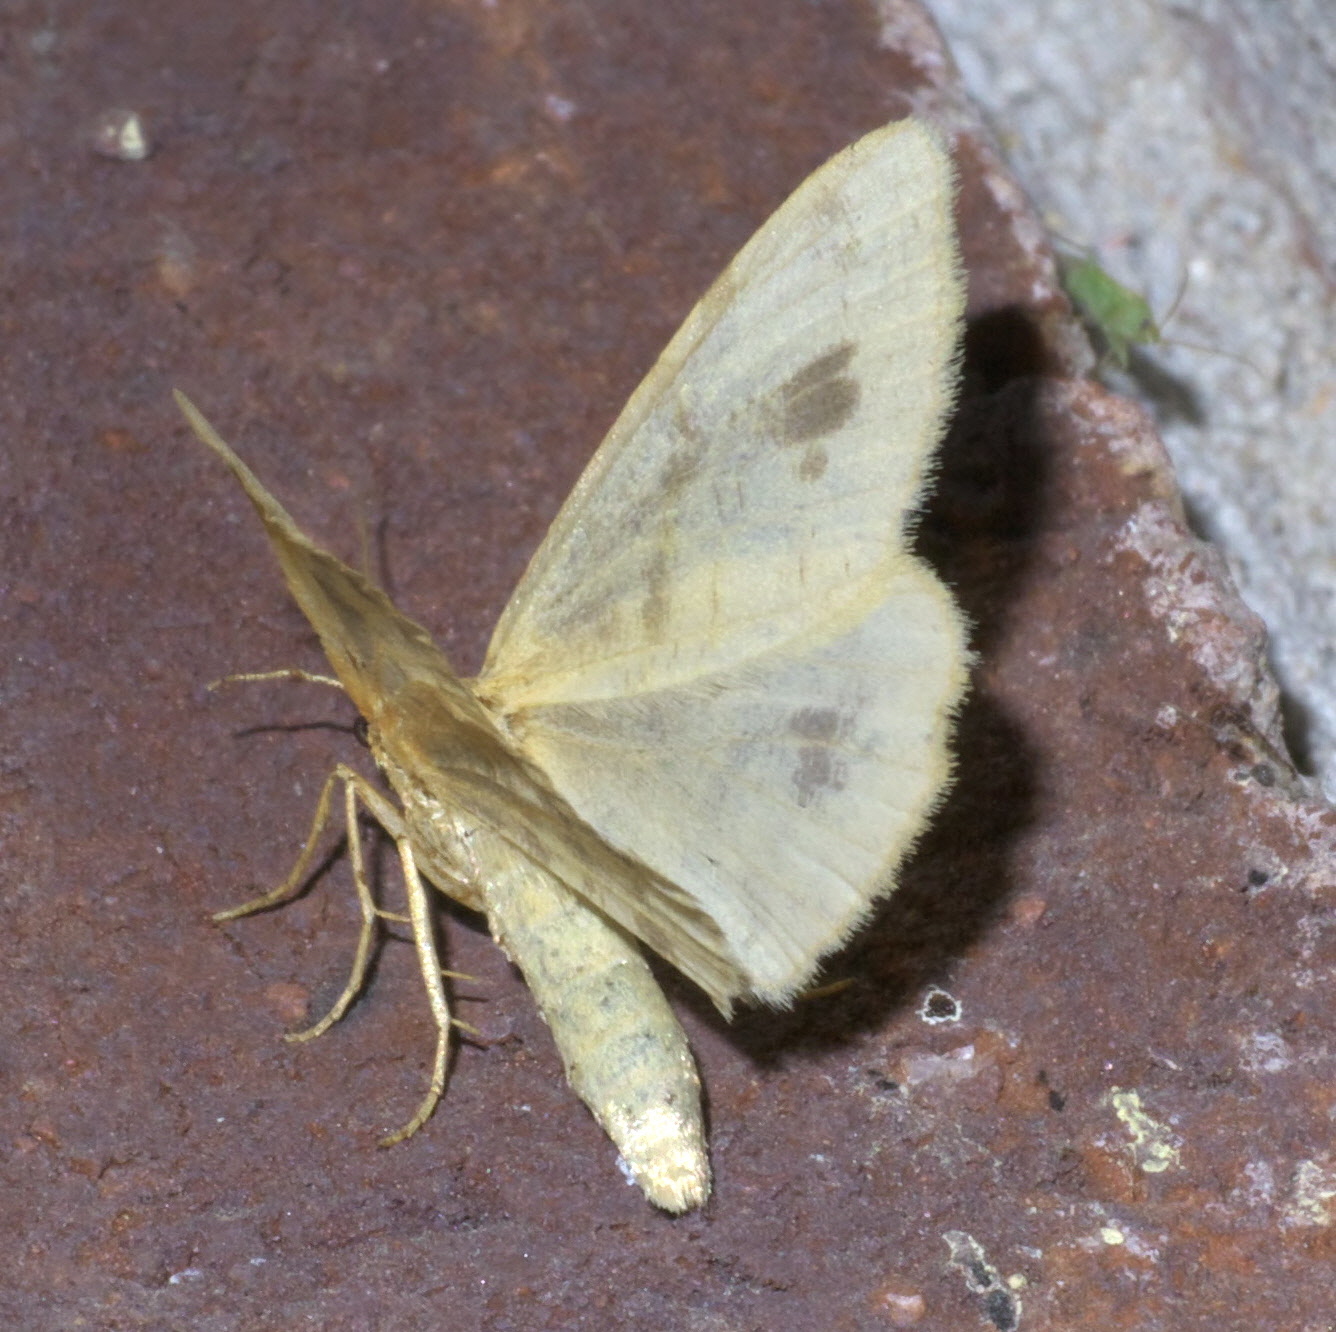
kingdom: Animalia
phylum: Arthropoda
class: Insecta
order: Lepidoptera
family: Geometridae
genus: Macaria
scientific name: Macaria ribearia
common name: Currant spanworm moth
